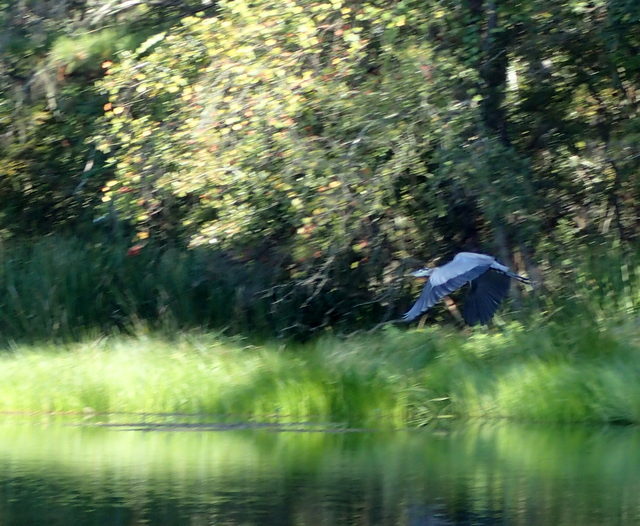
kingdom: Animalia
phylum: Chordata
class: Aves
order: Pelecaniformes
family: Ardeidae
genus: Ardea
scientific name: Ardea herodias
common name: Great blue heron
